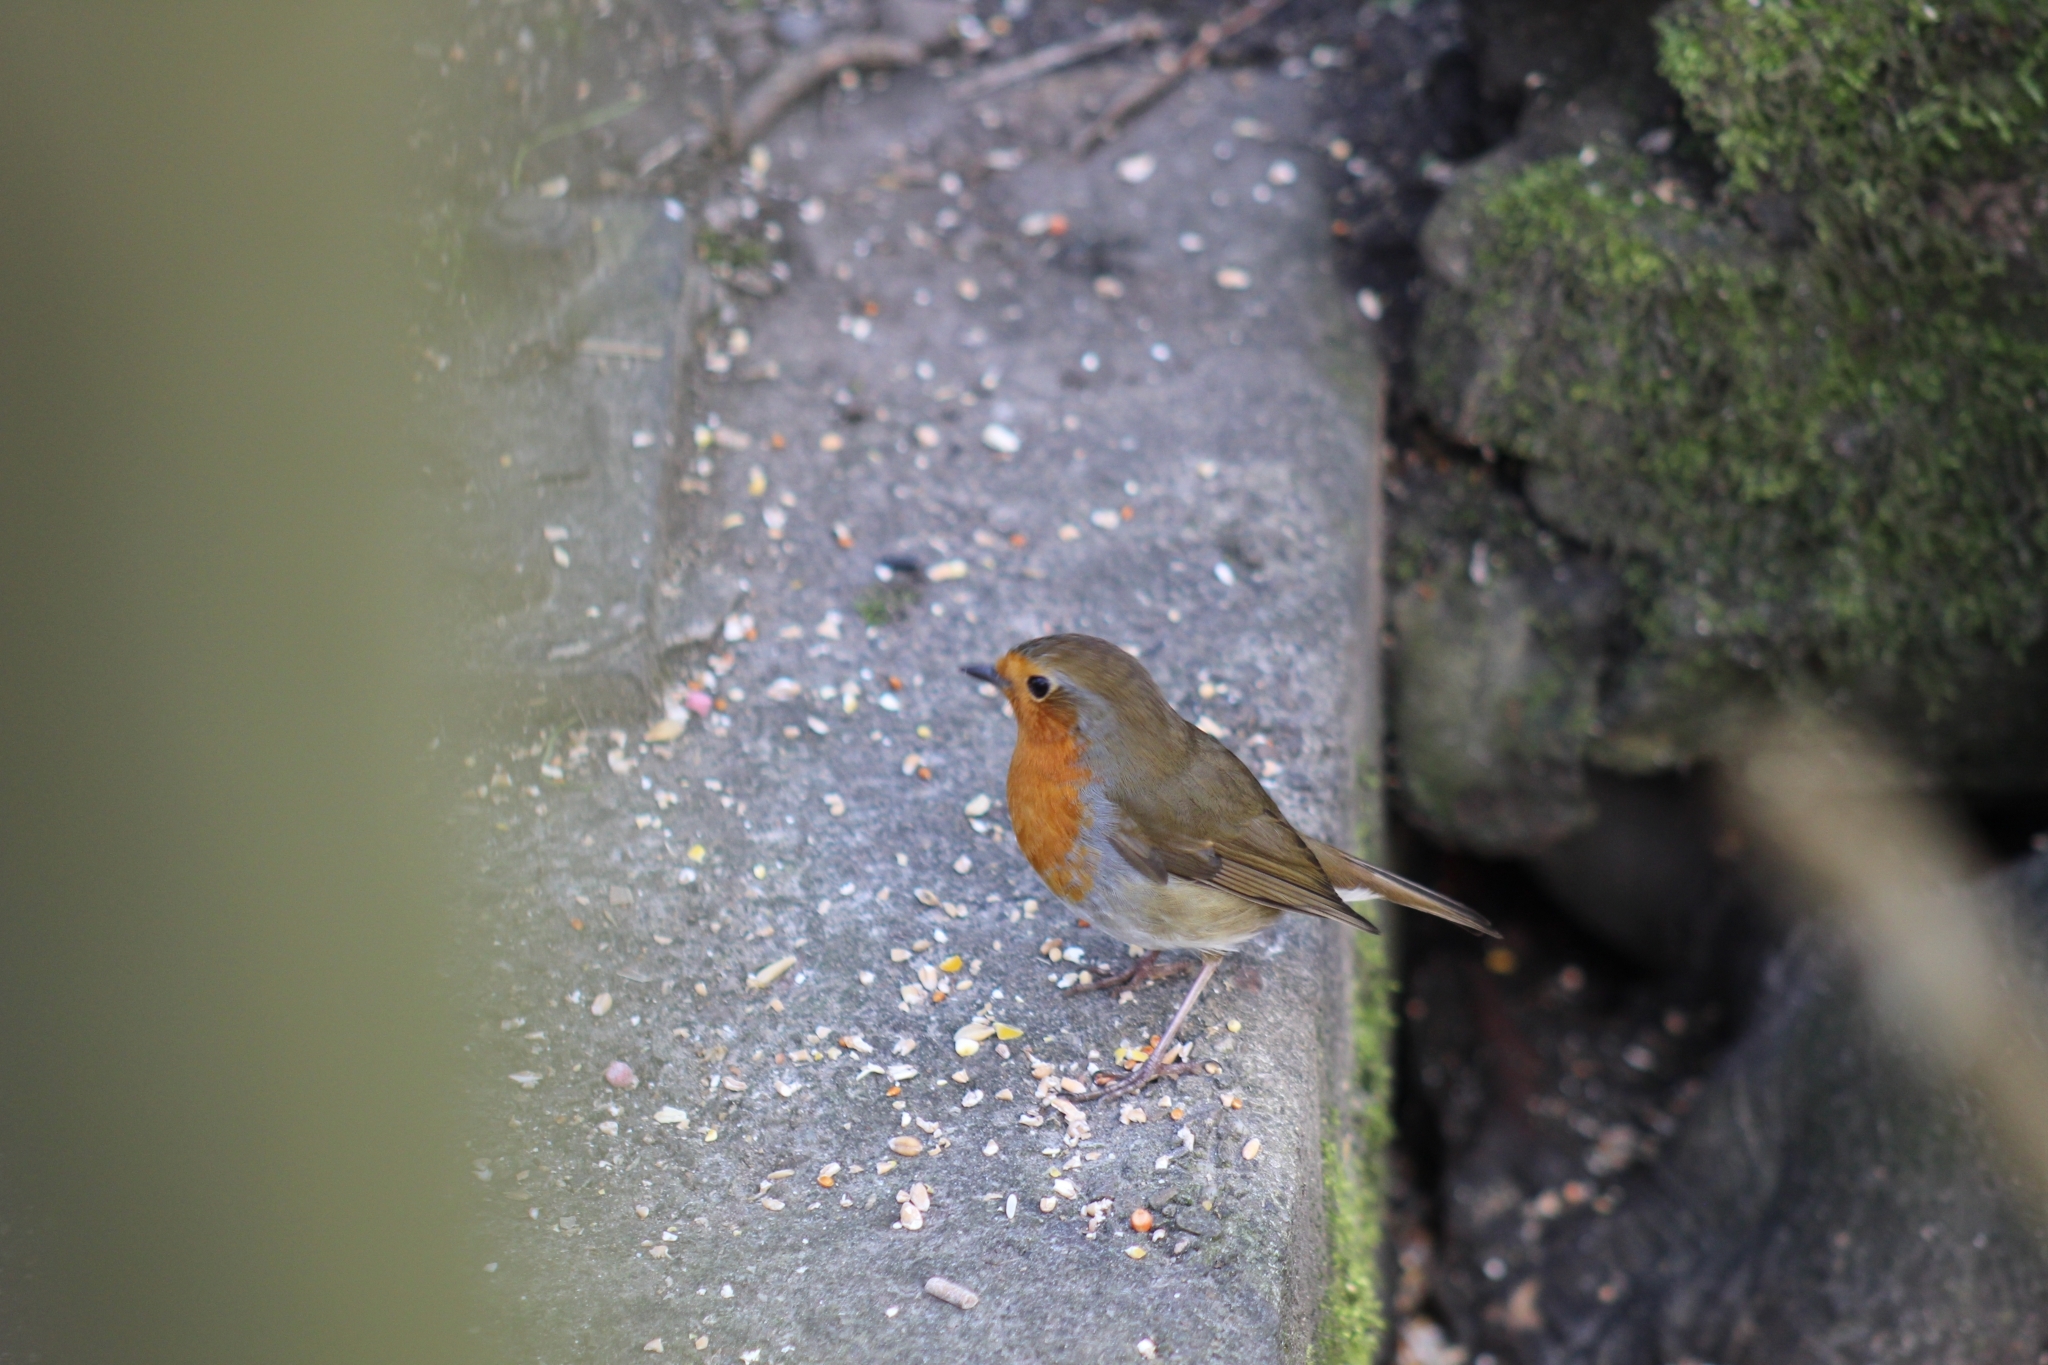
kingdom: Animalia
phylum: Chordata
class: Aves
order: Passeriformes
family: Muscicapidae
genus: Erithacus
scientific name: Erithacus rubecula
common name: European robin
